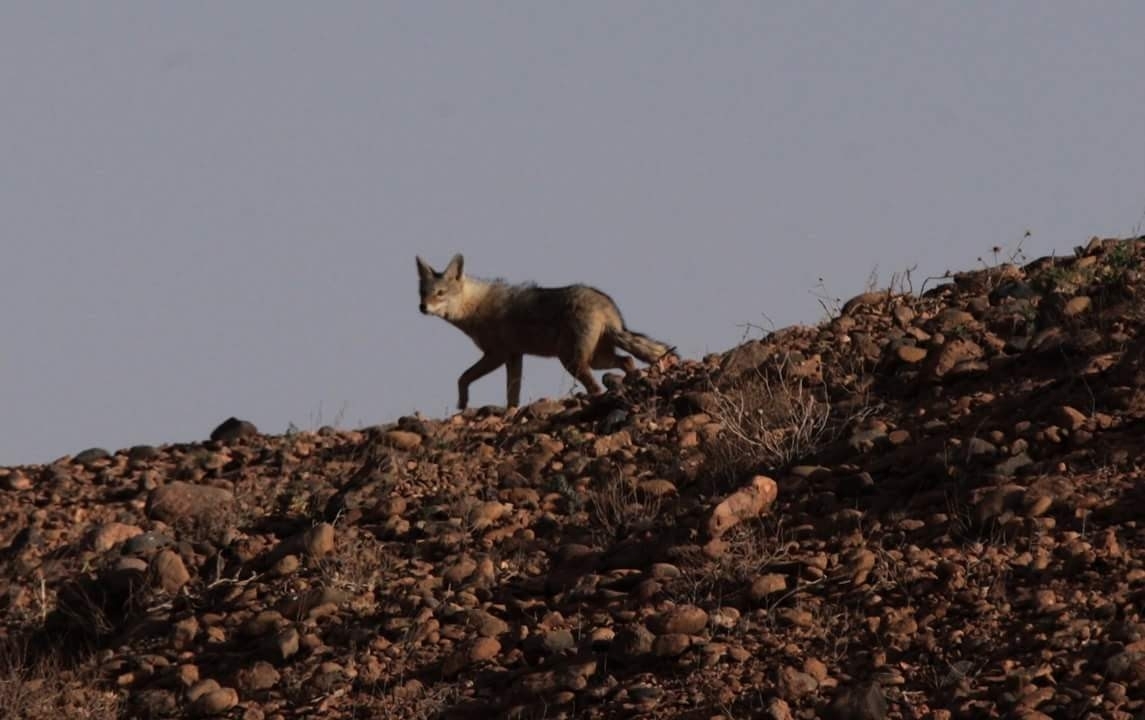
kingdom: Animalia
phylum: Chordata
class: Mammalia
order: Carnivora
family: Canidae
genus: Canis
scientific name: Canis lupaster
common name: African golden wolf
